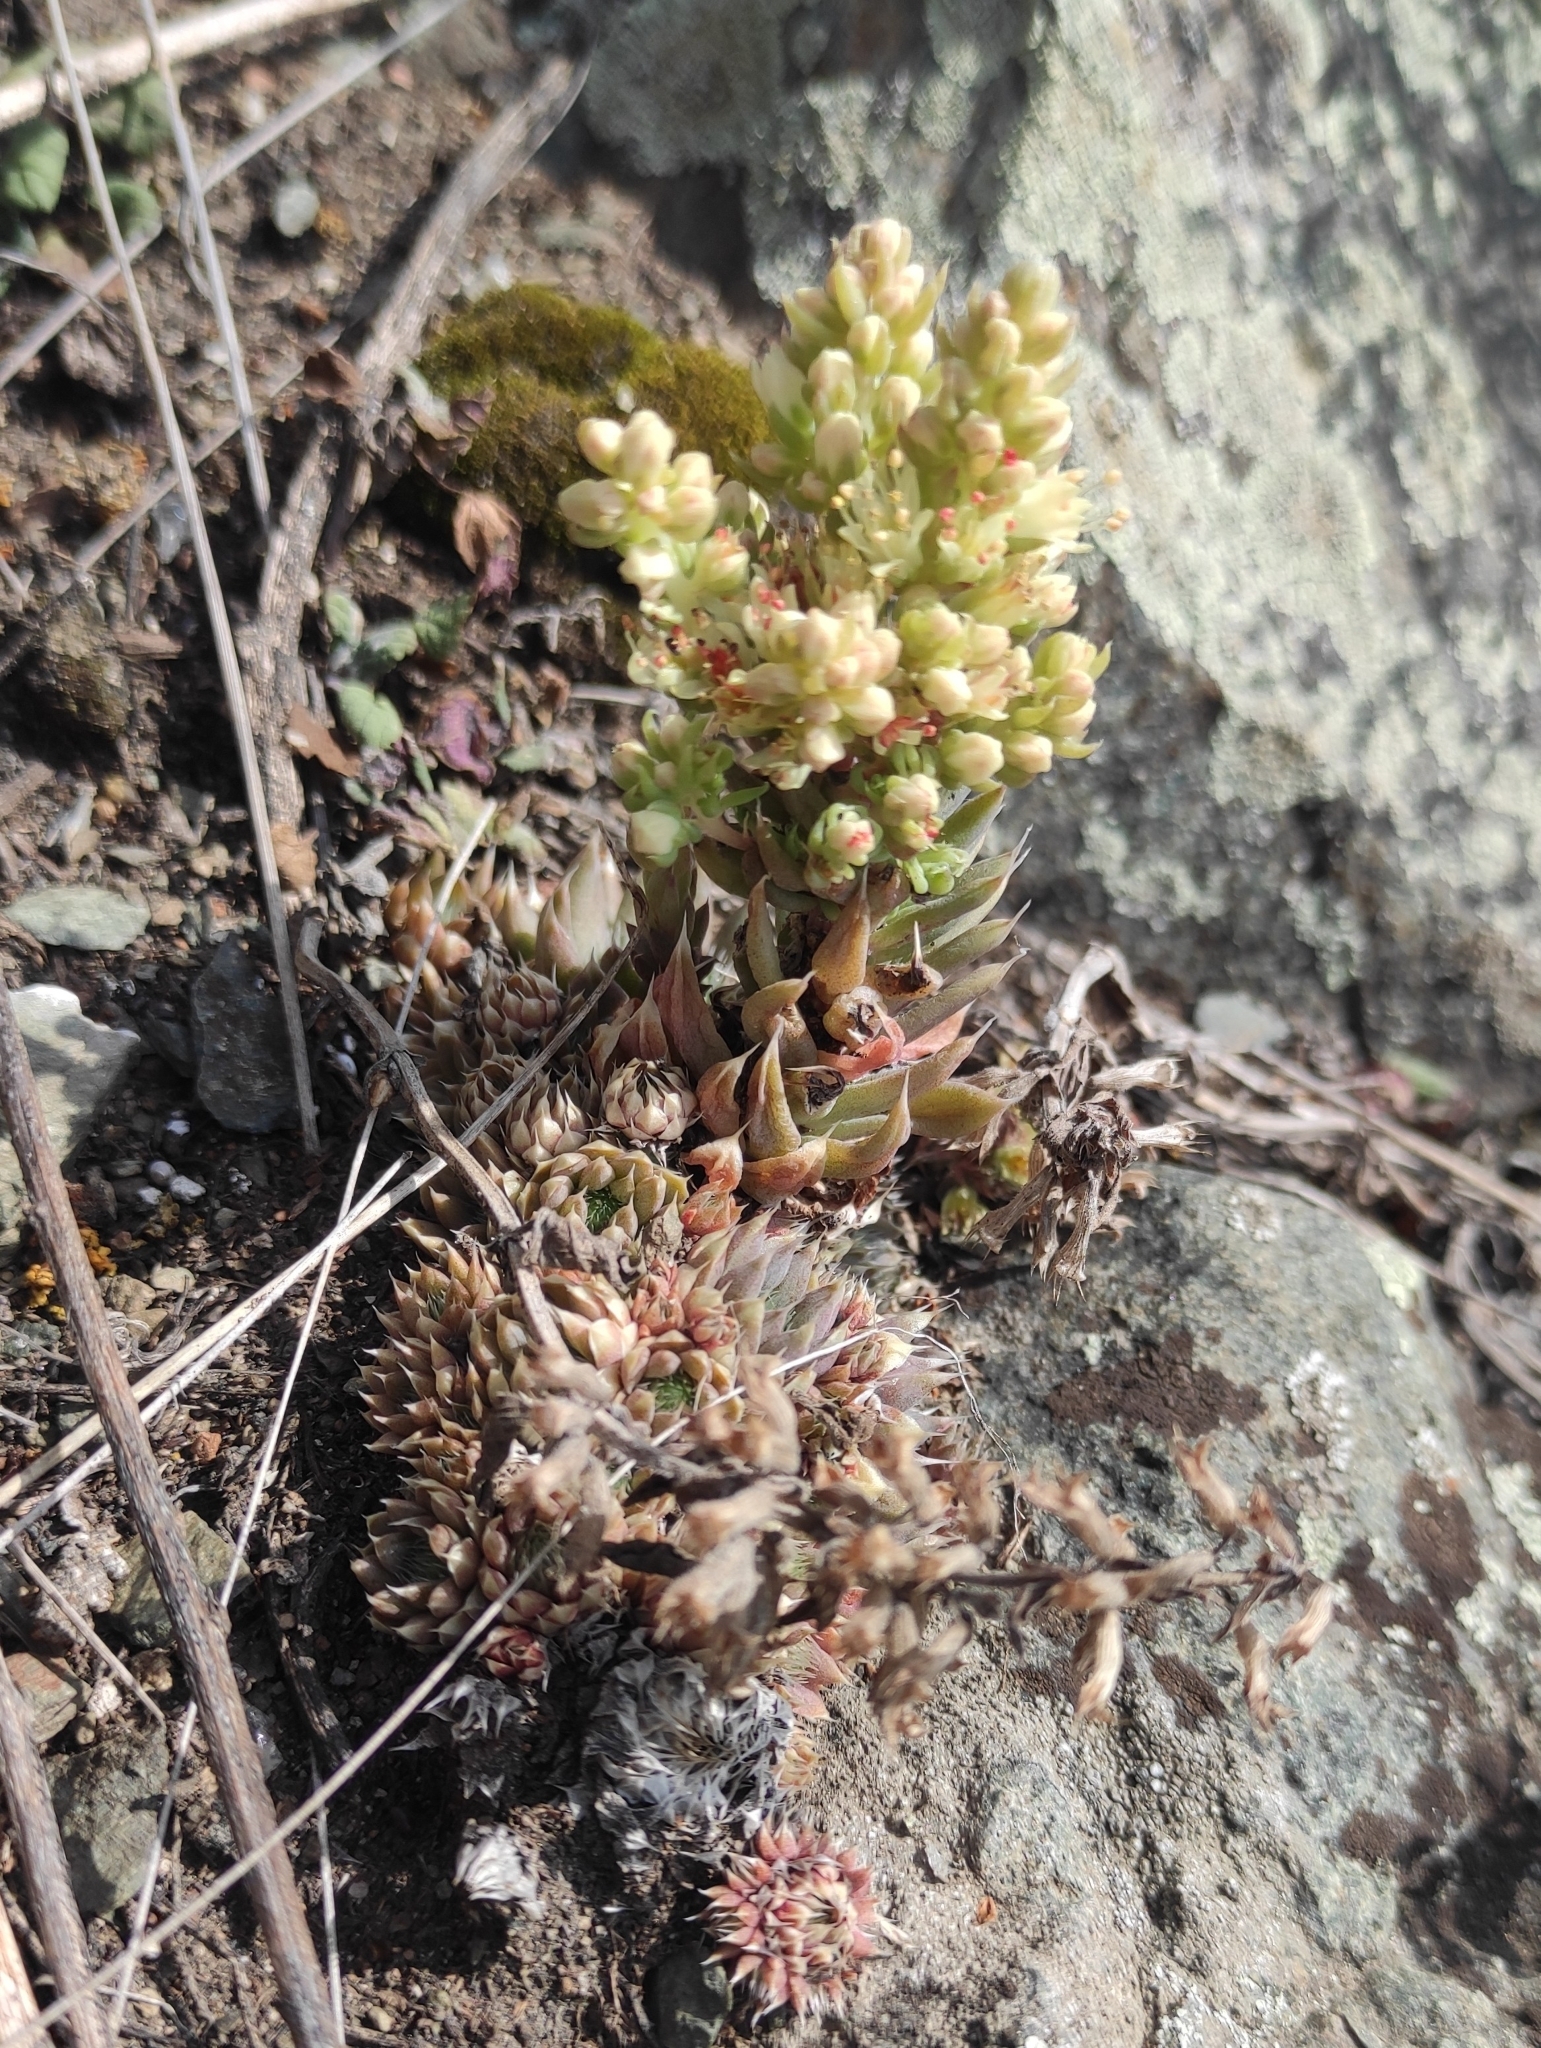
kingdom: Plantae
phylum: Tracheophyta
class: Magnoliopsida
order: Saxifragales
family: Crassulaceae
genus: Orostachys
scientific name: Orostachys spinosa
